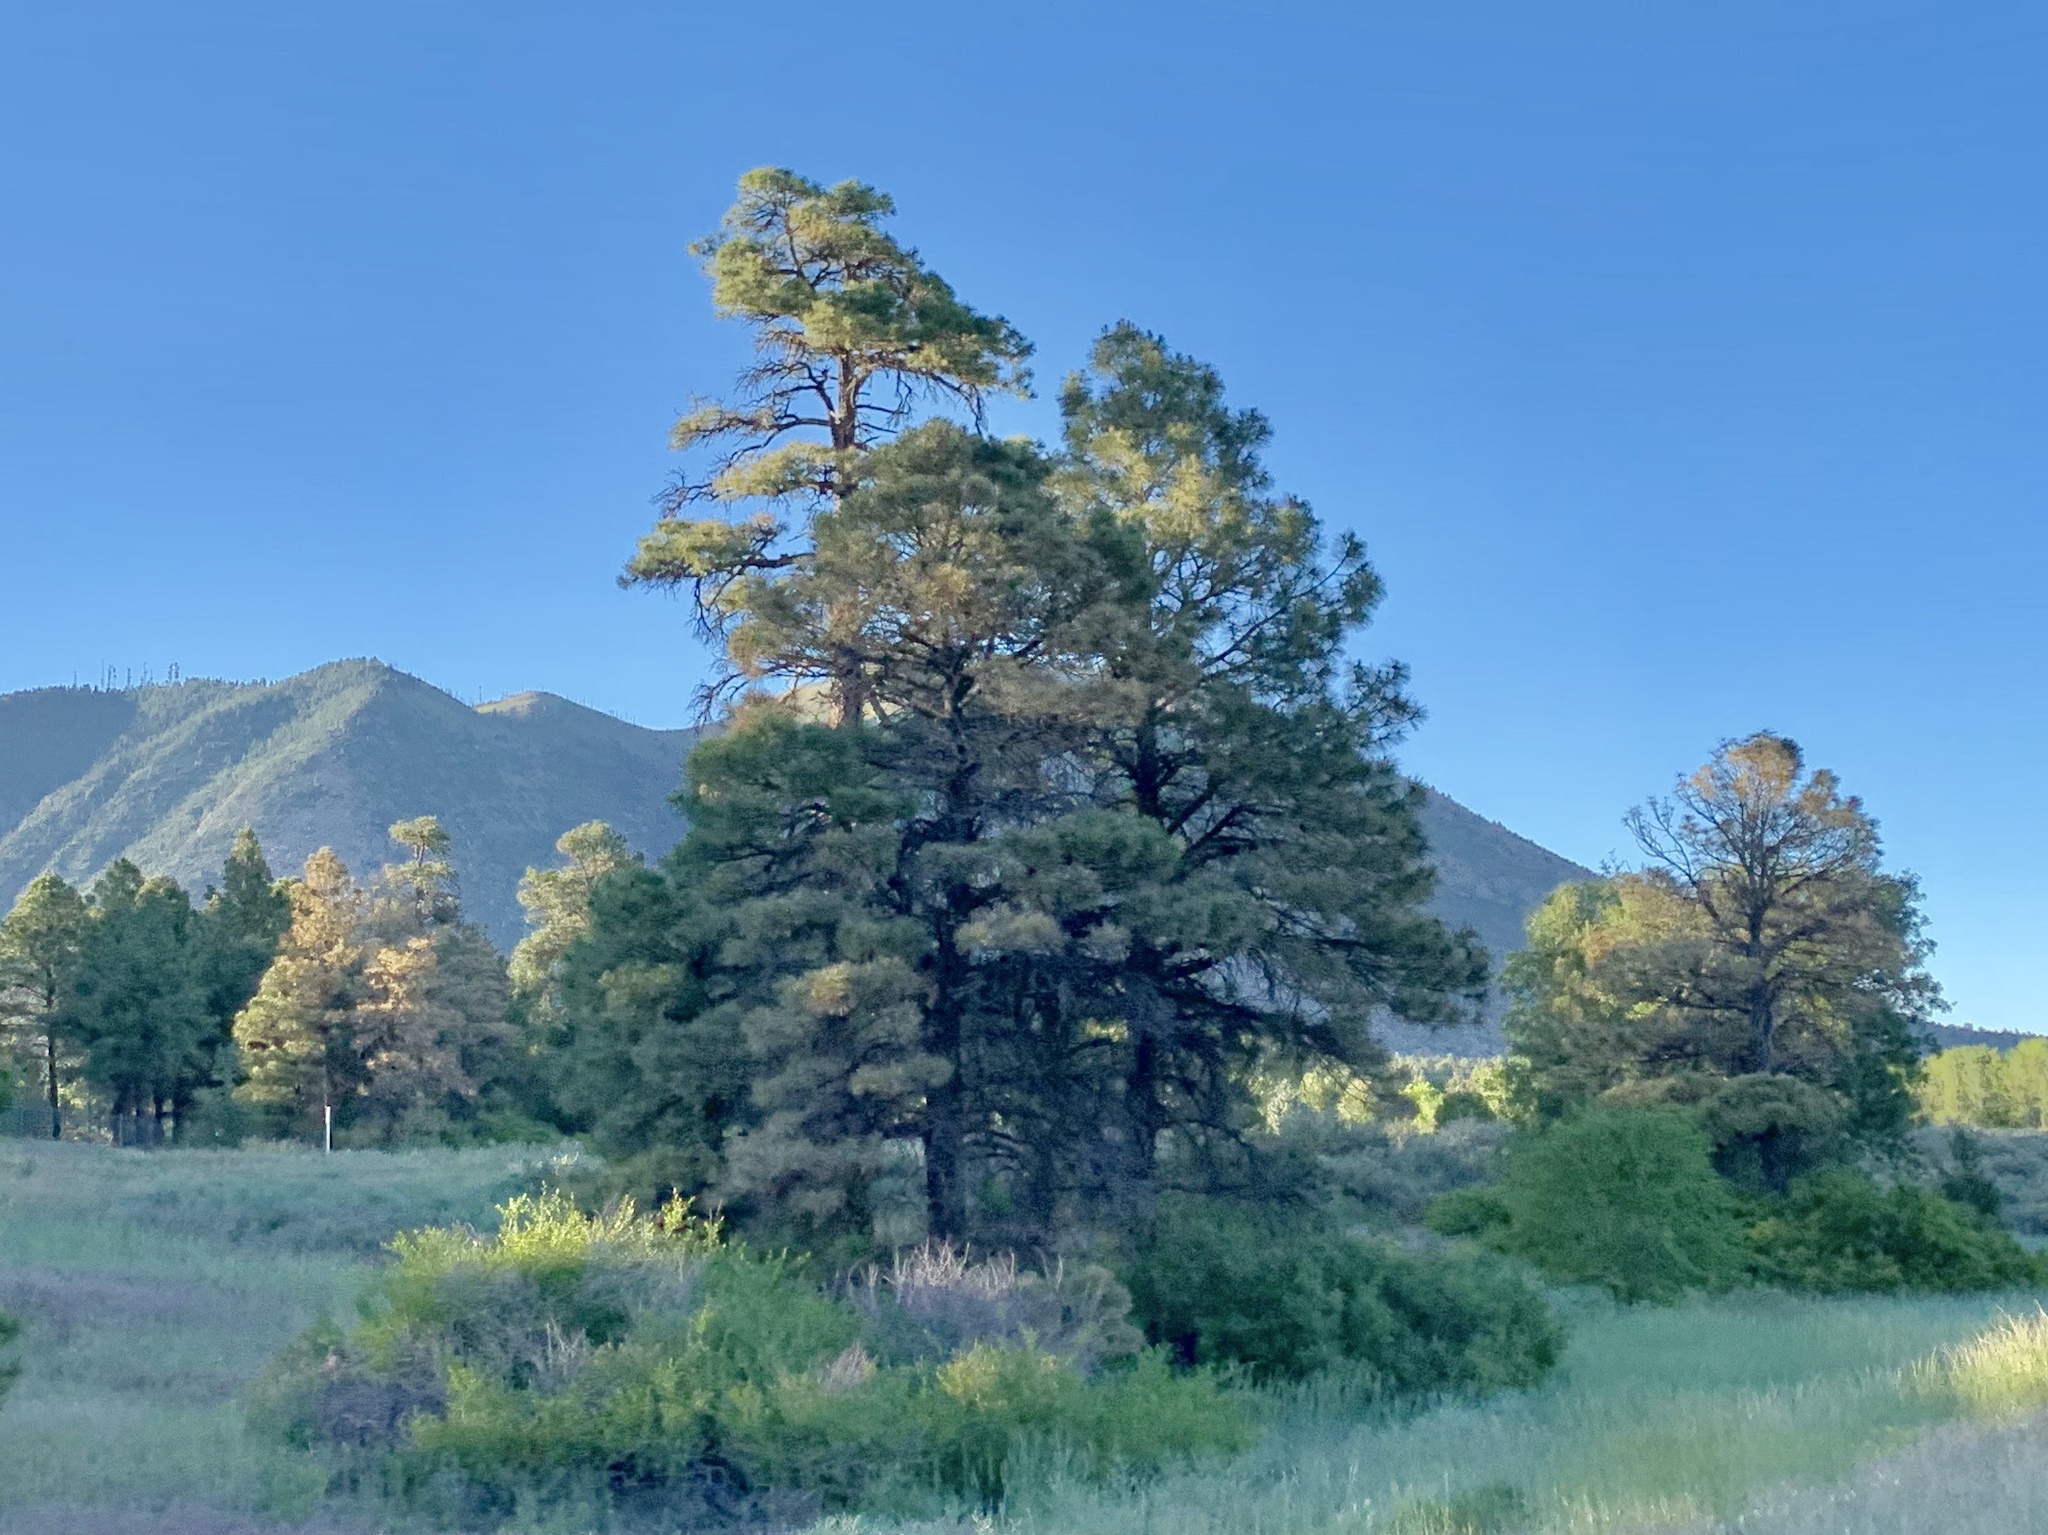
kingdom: Plantae
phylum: Tracheophyta
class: Pinopsida
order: Pinales
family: Pinaceae
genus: Pinus
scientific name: Pinus ponderosa
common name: Western yellow-pine
